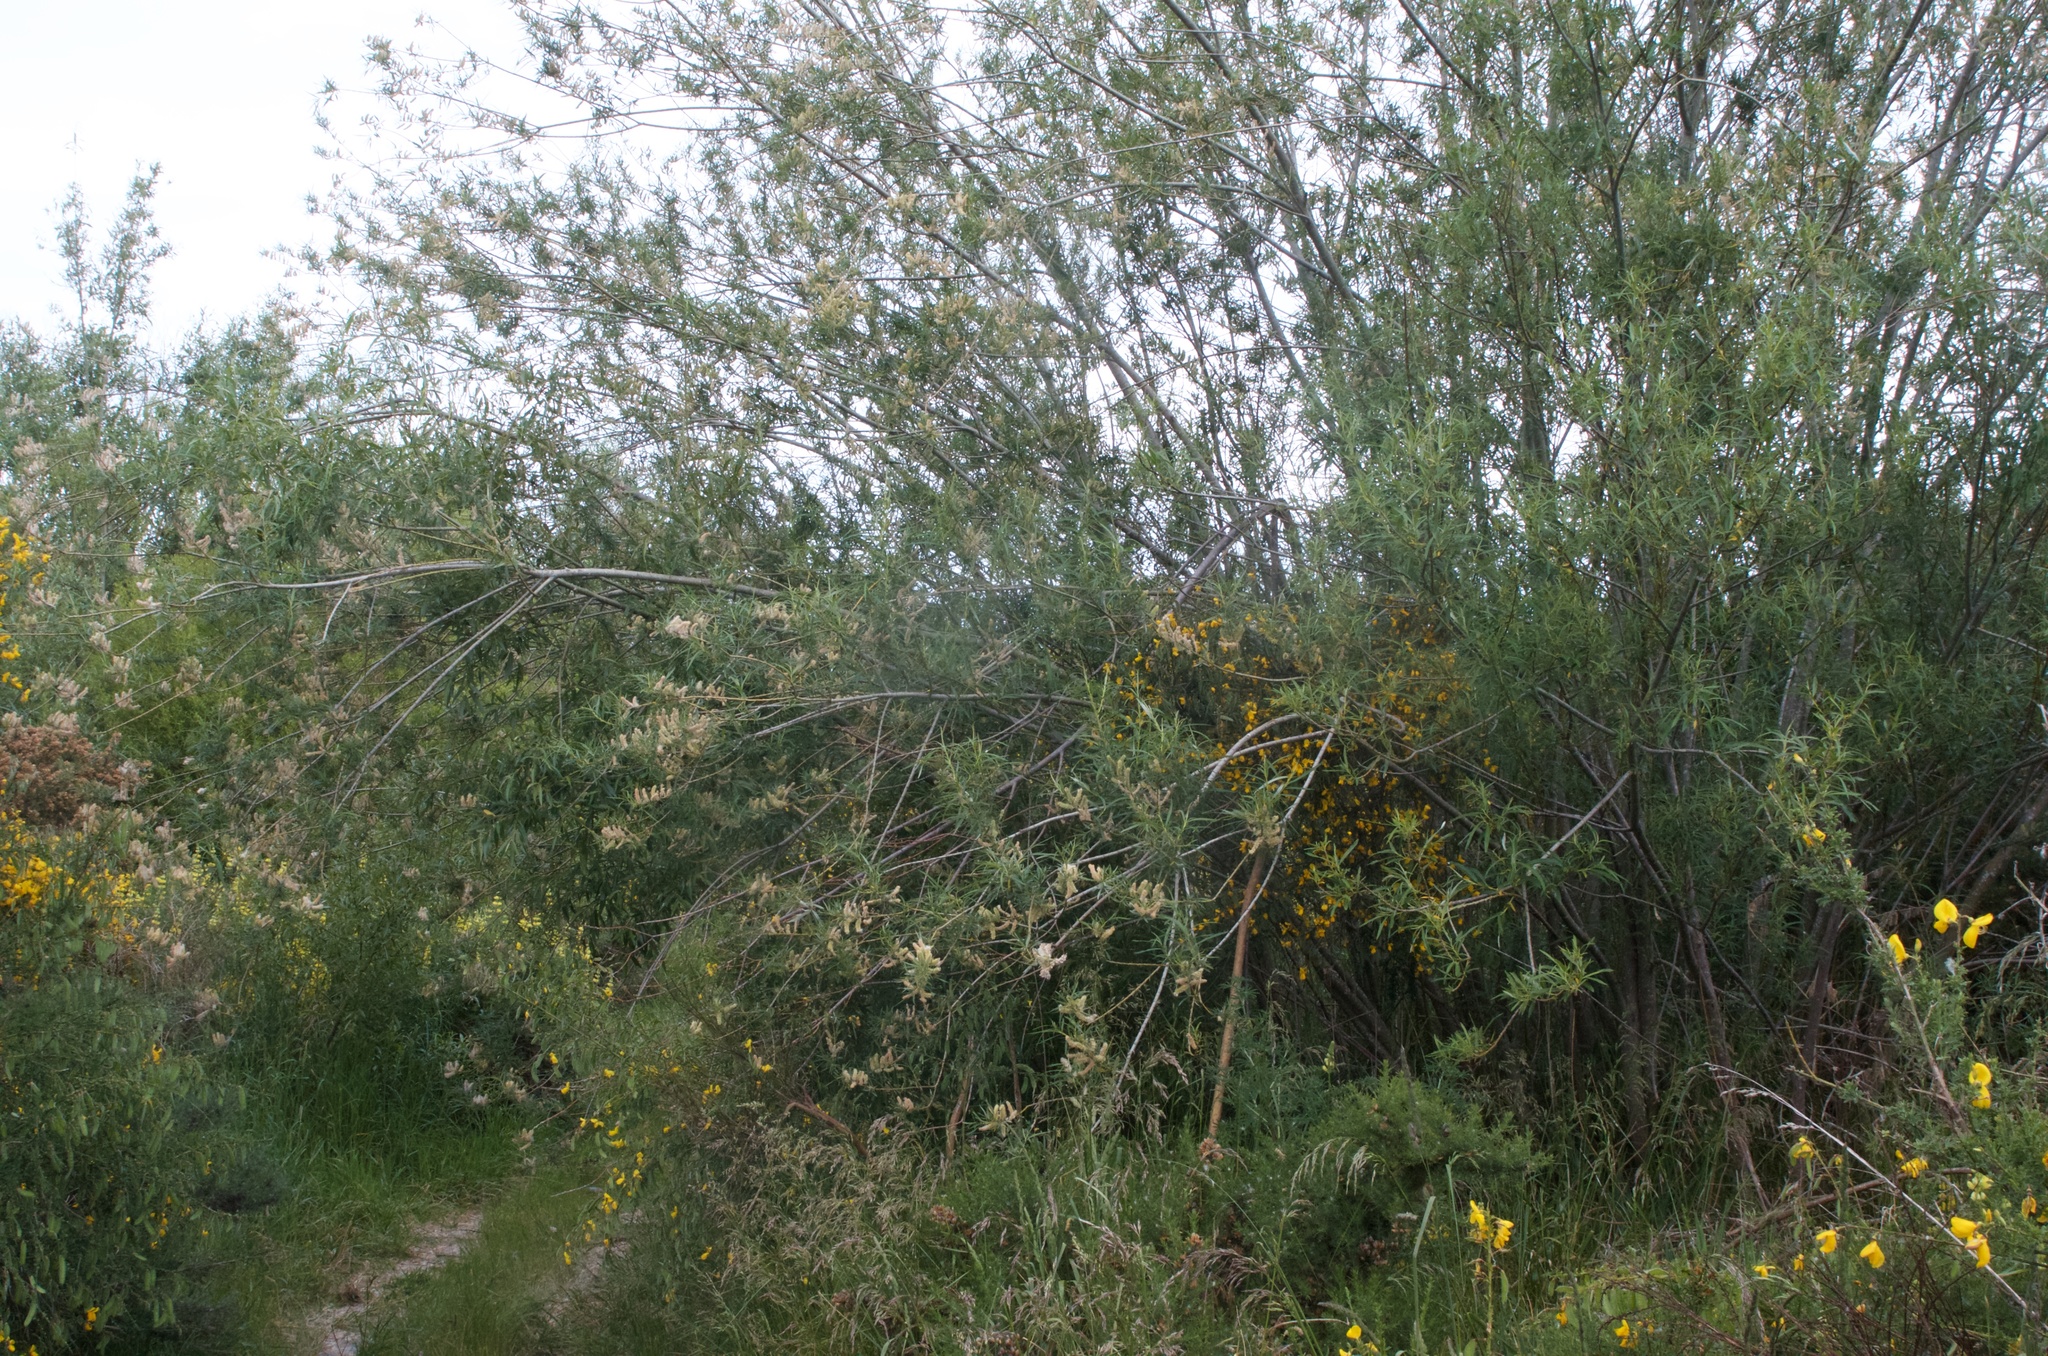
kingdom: Plantae
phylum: Tracheophyta
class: Magnoliopsida
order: Malpighiales
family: Salicaceae
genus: Salix
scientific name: Salix viminalis
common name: Osier
